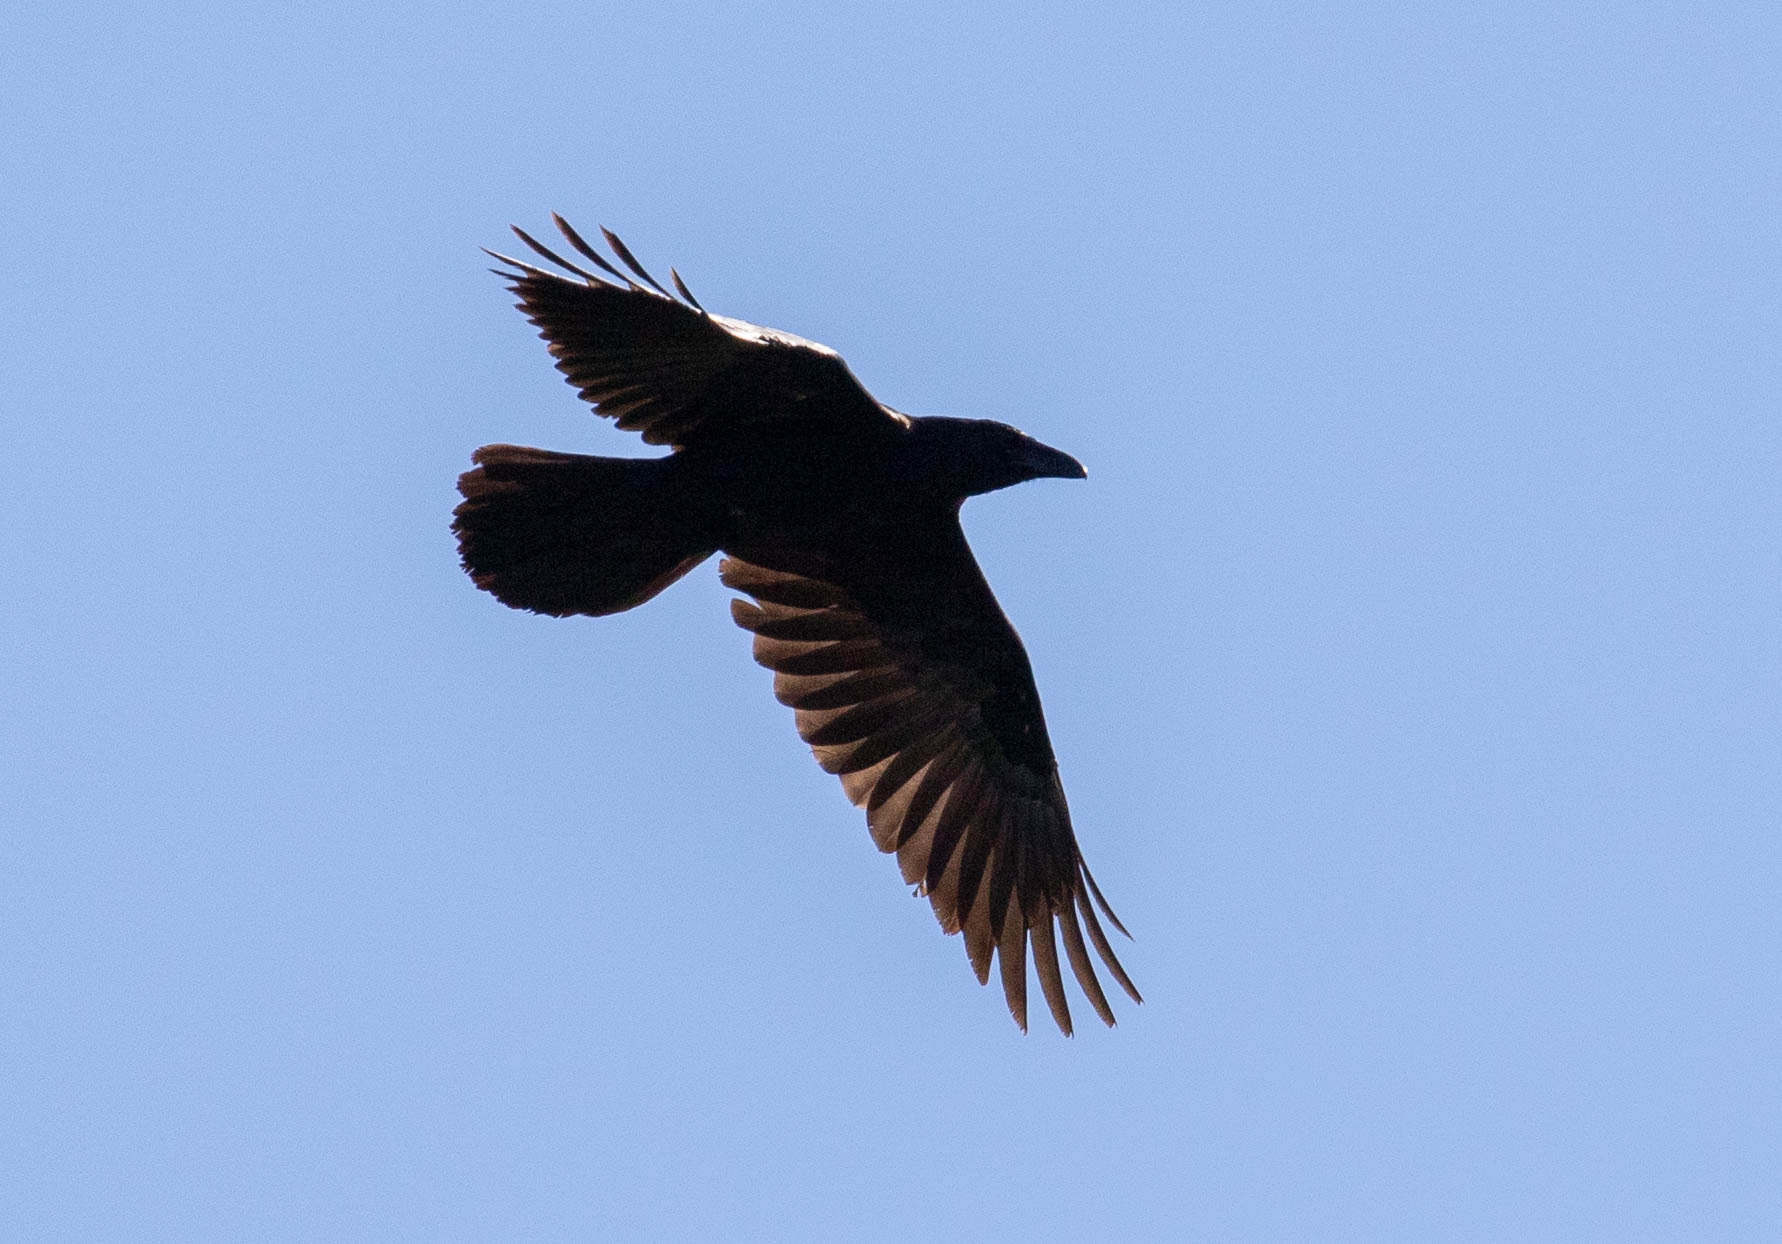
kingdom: Animalia
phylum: Chordata
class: Aves
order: Passeriformes
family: Corvidae
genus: Corvus
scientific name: Corvus corax
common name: Common raven
